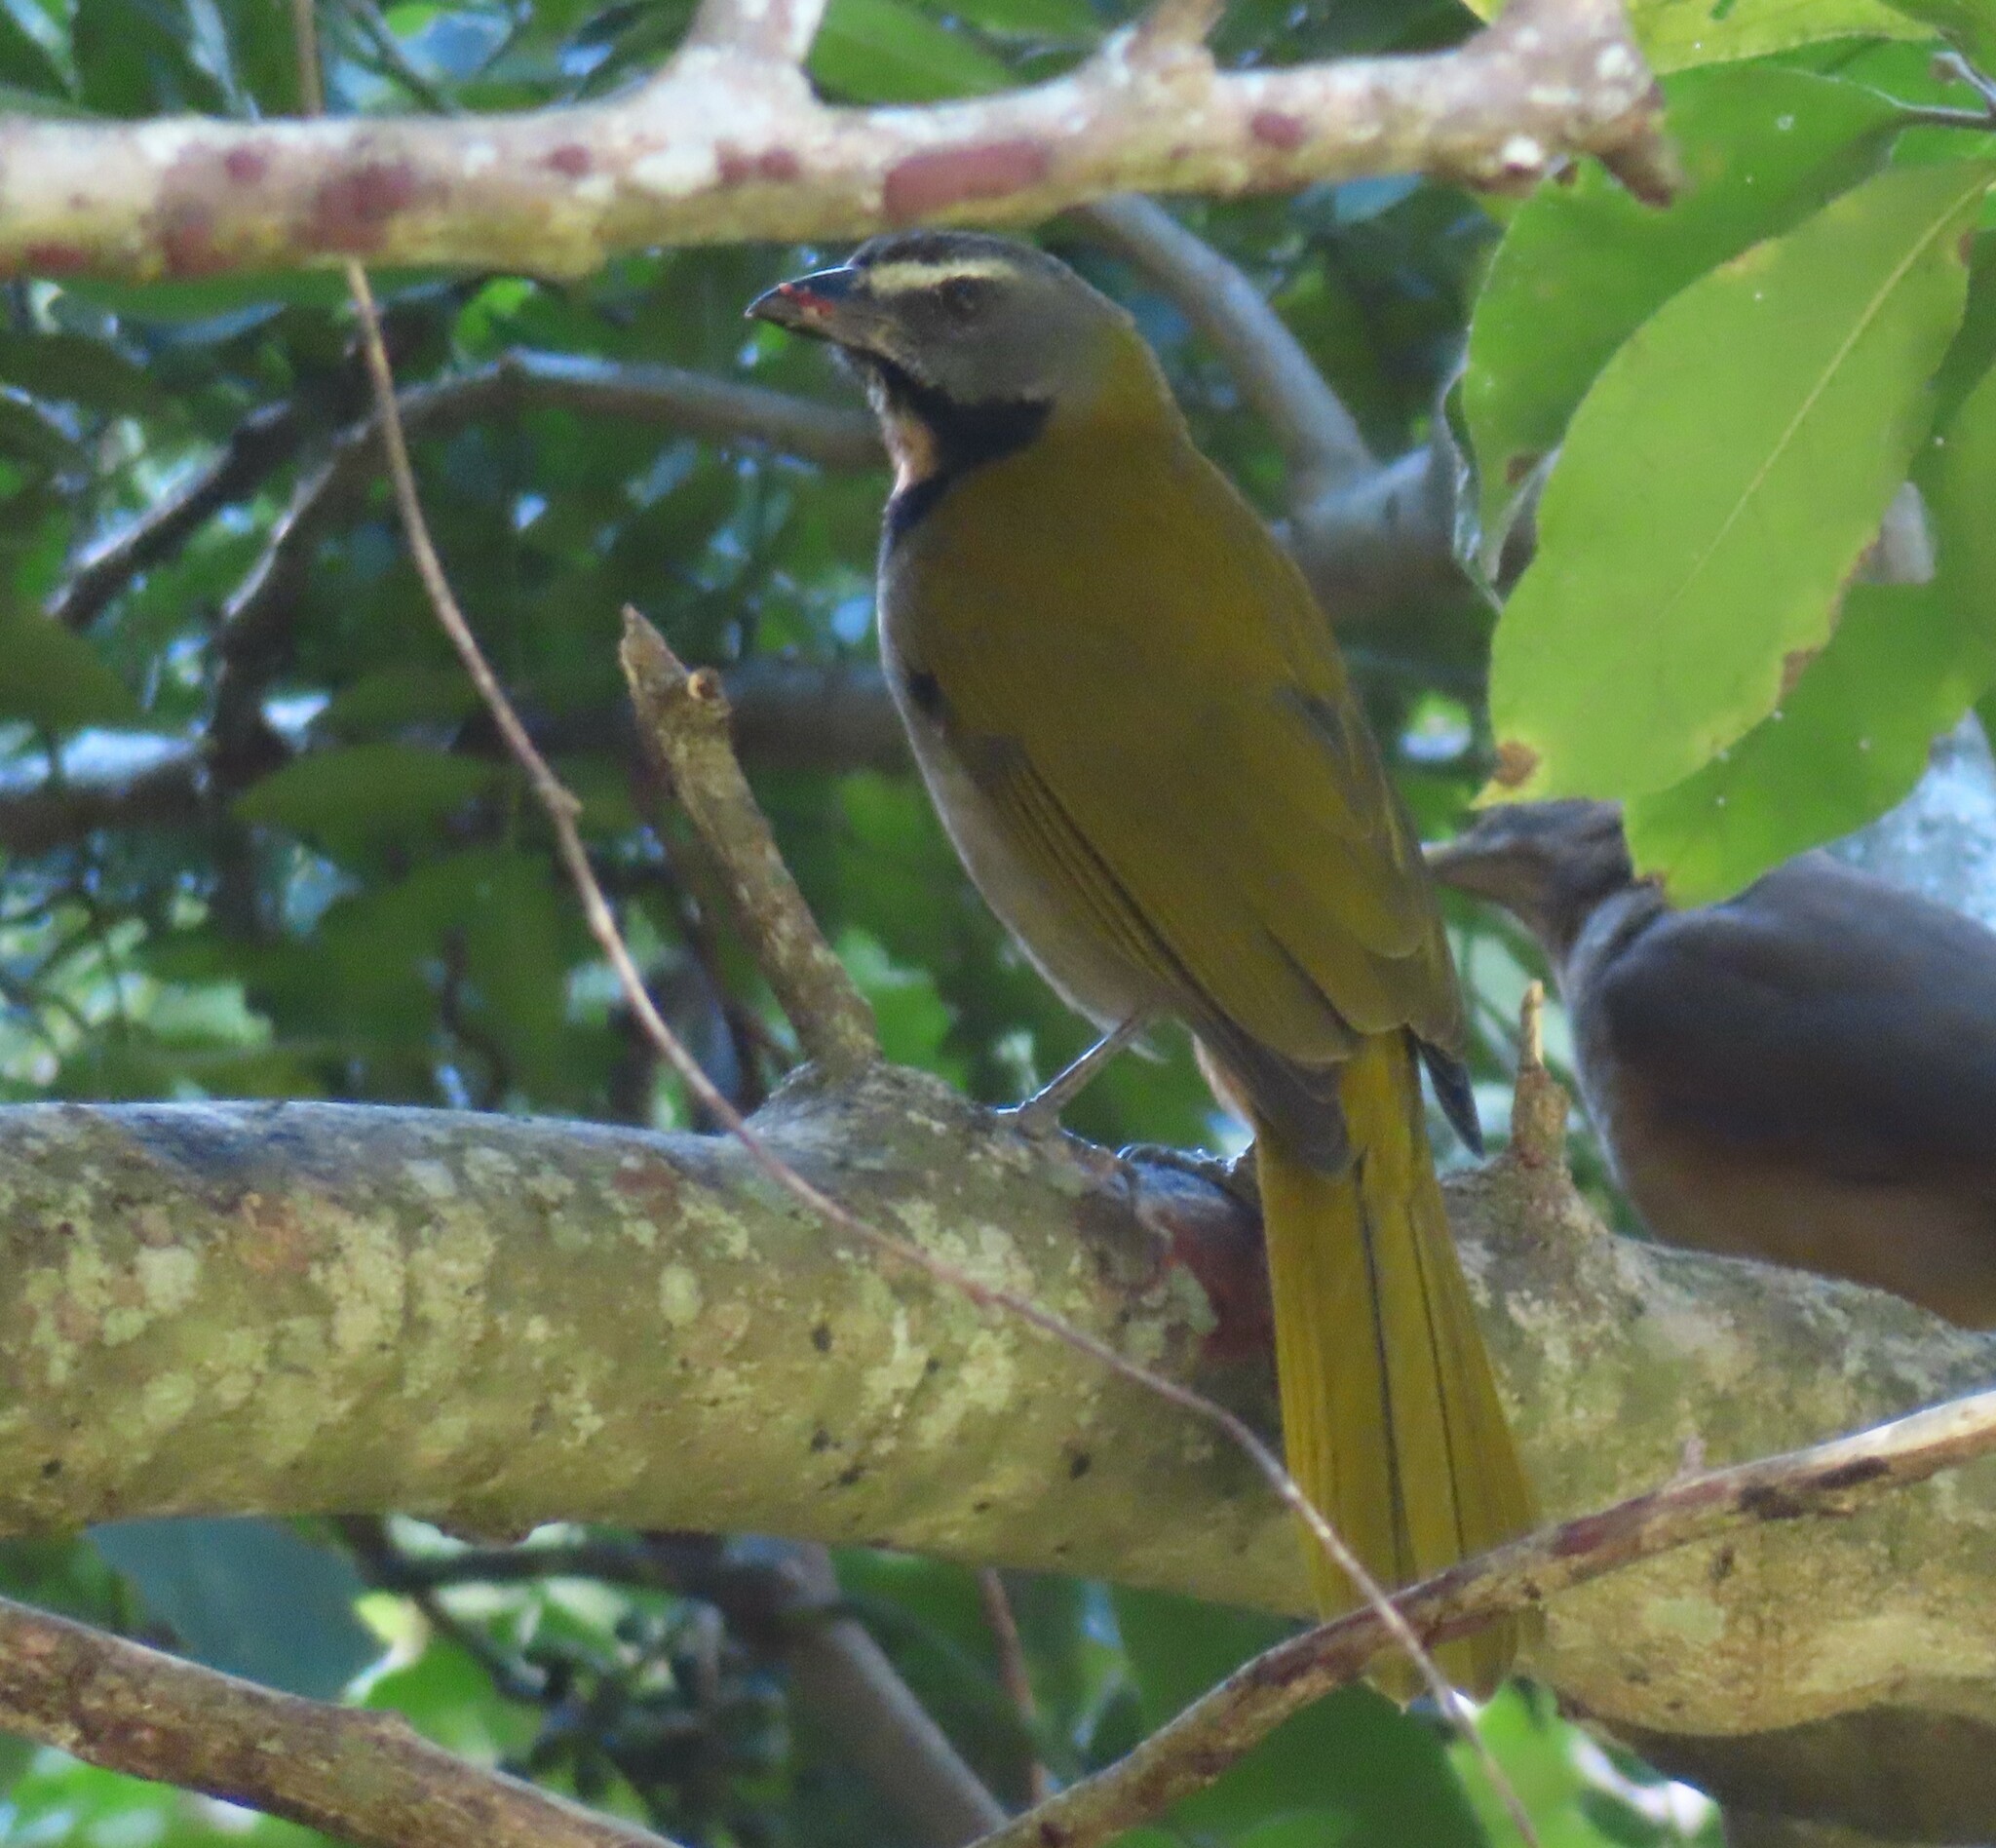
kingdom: Animalia
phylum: Chordata
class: Aves
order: Passeriformes
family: Thraupidae
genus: Saltator
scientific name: Saltator maximus
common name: Buff-throated saltator
